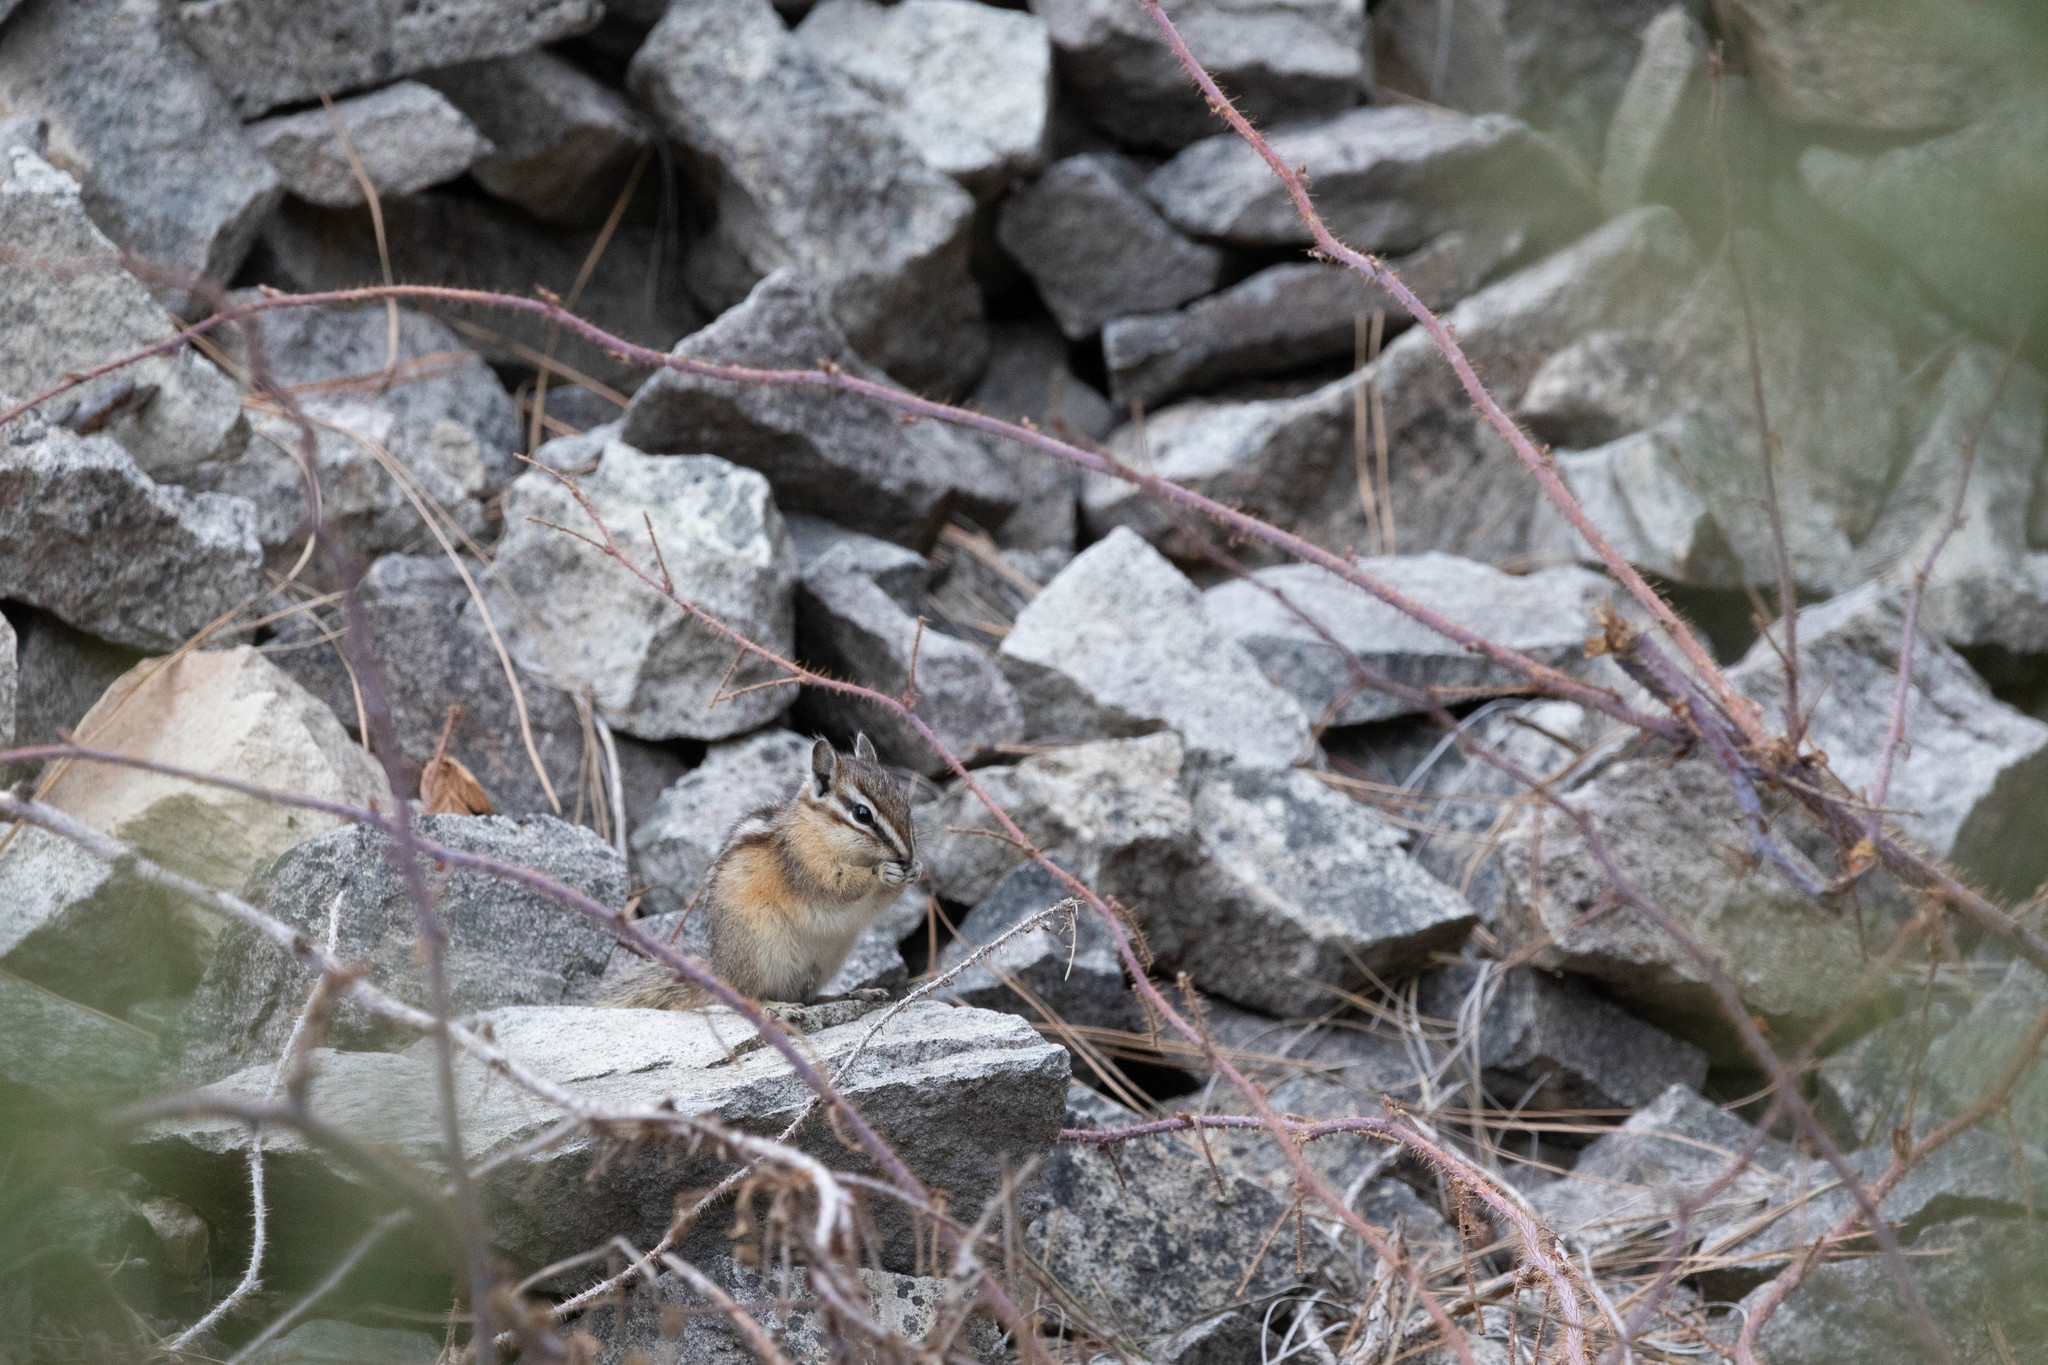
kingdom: Animalia
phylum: Chordata
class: Mammalia
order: Rodentia
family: Sciuridae
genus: Tamias
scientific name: Tamias amoenus
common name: Yellow-pine chipmunk
